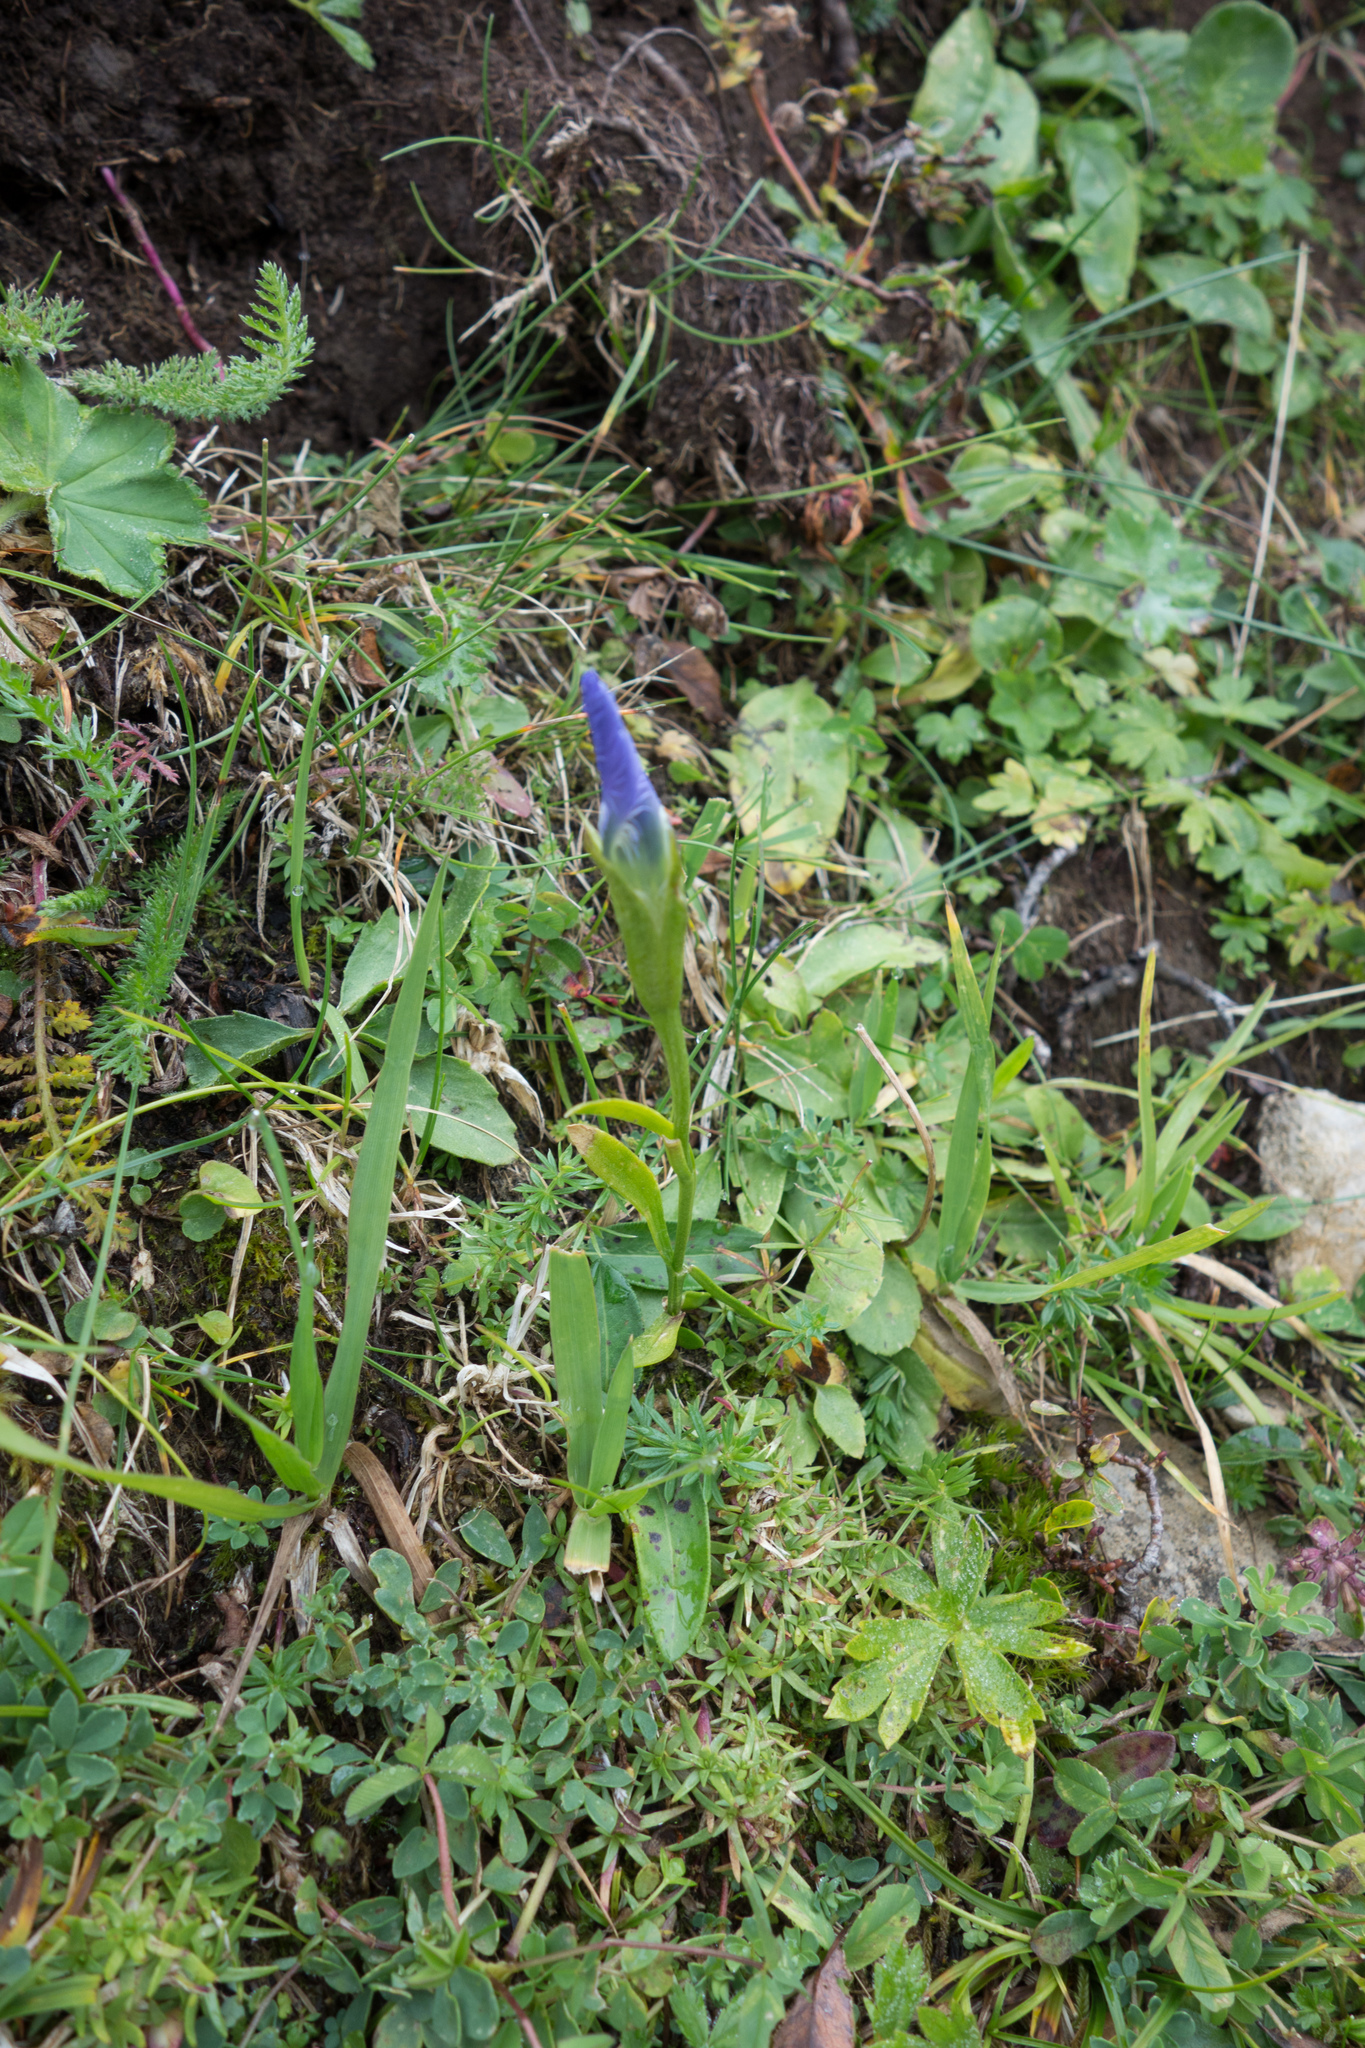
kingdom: Plantae
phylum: Tracheophyta
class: Magnoliopsida
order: Gentianales
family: Gentianaceae
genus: Gentianopsis
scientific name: Gentianopsis ciliata
